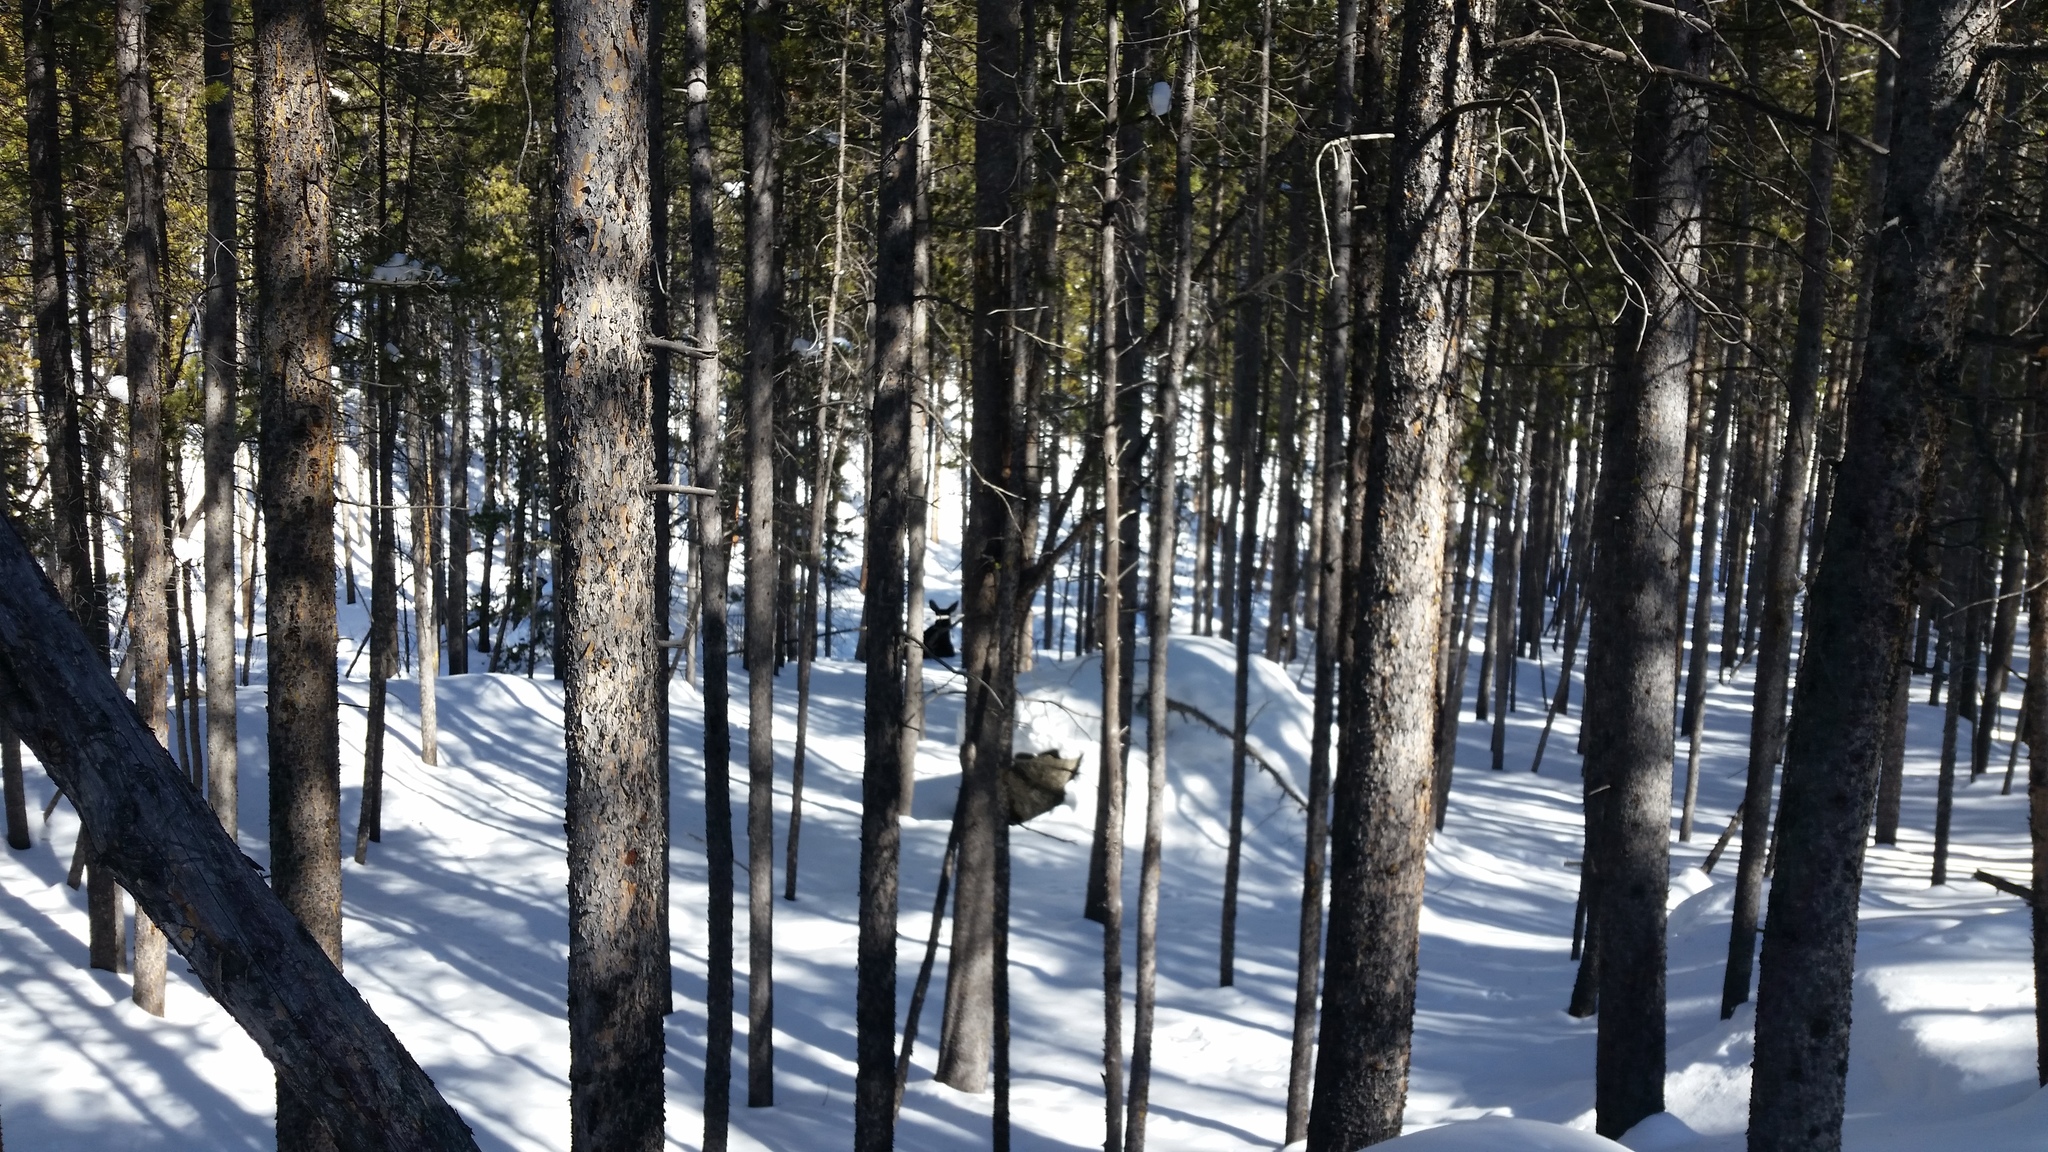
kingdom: Animalia
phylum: Chordata
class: Mammalia
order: Artiodactyla
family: Cervidae
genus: Alces
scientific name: Alces alces
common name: Moose
